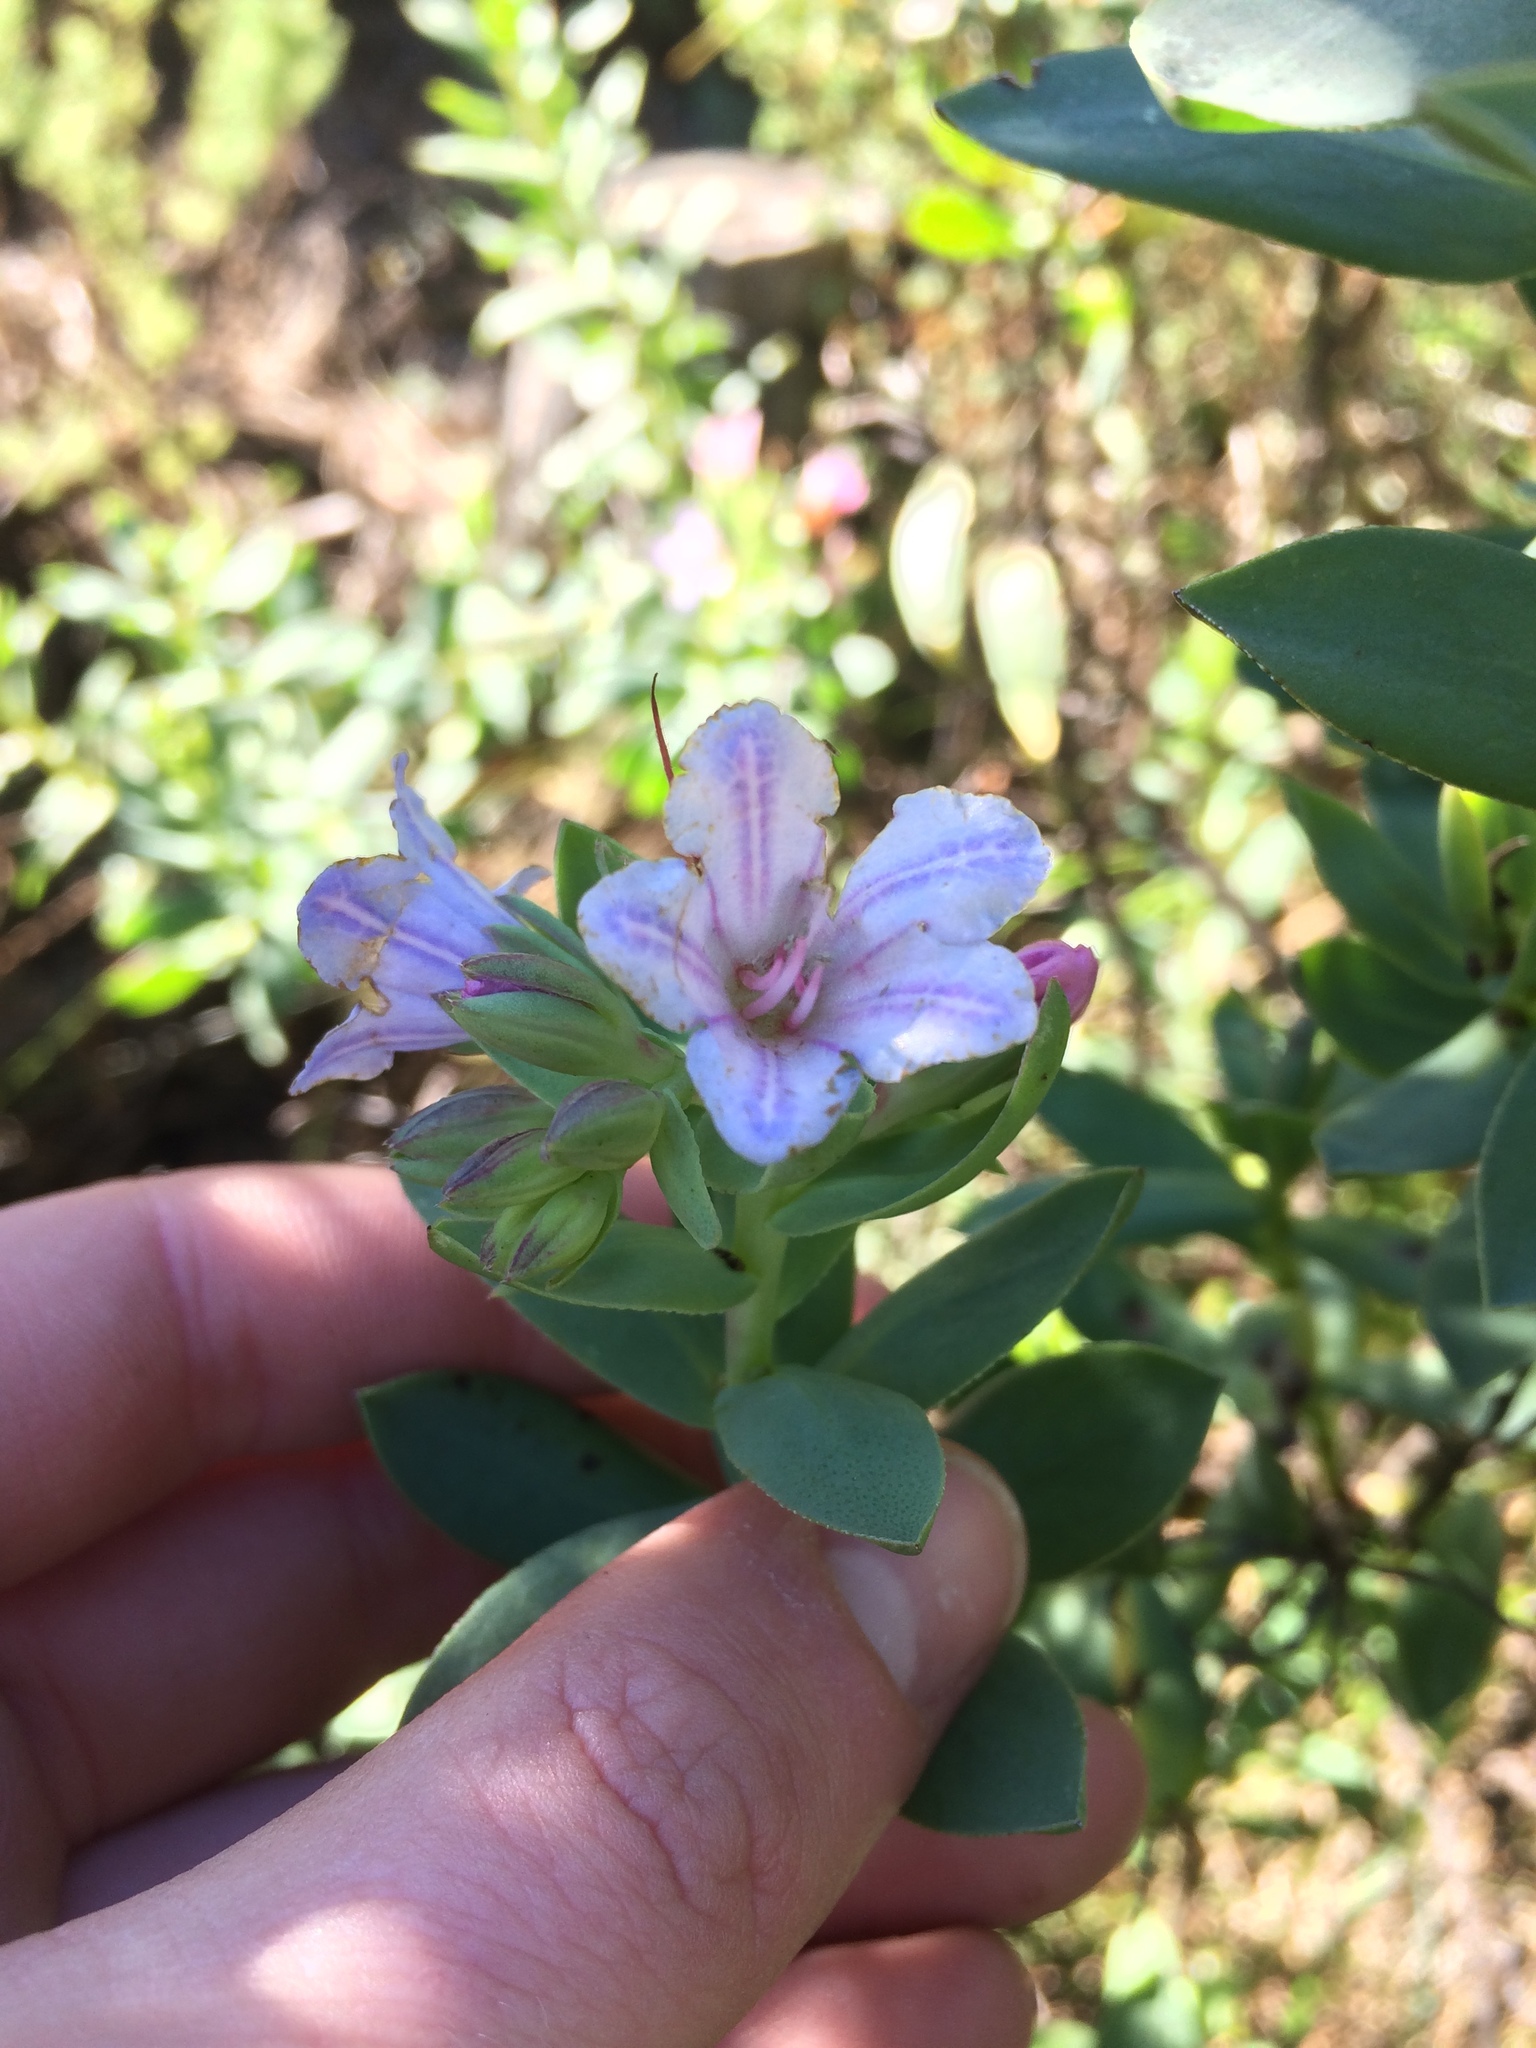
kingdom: Plantae
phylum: Tracheophyta
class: Magnoliopsida
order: Boraginales
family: Boraginaceae
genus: Lobostemon
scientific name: Lobostemon glaucophyllus
